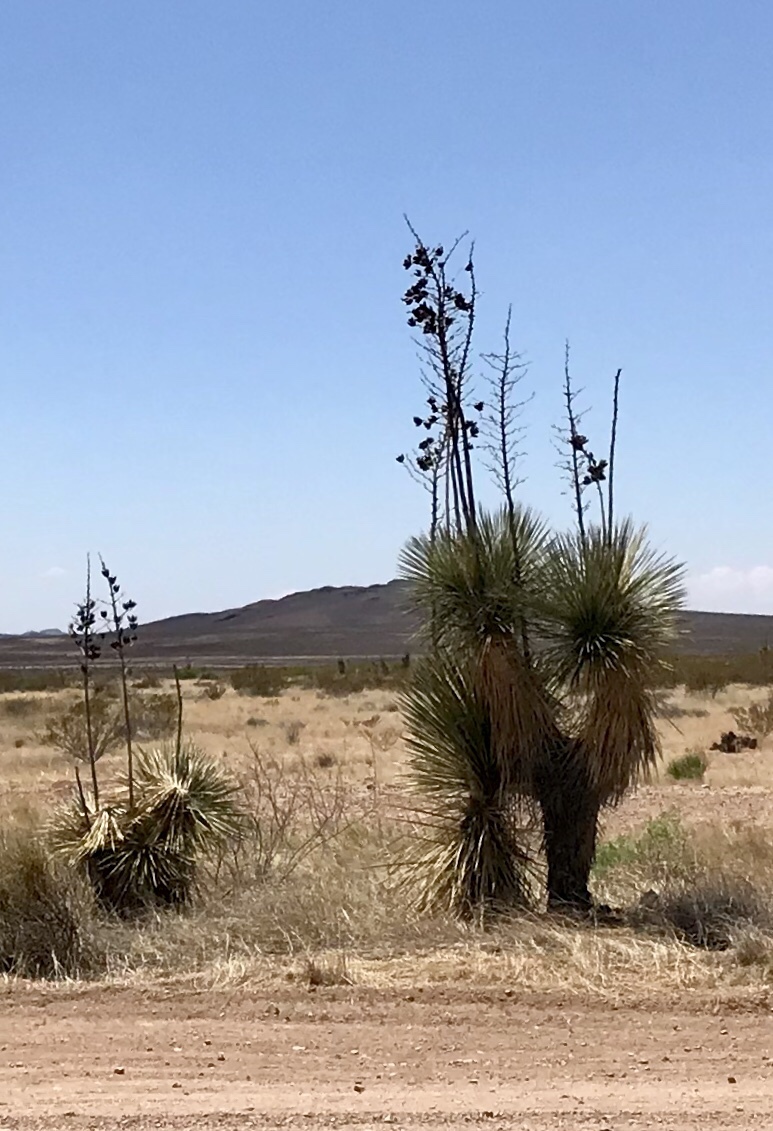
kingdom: Plantae
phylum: Tracheophyta
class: Liliopsida
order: Asparagales
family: Asparagaceae
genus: Yucca
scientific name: Yucca elata
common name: Palmella
